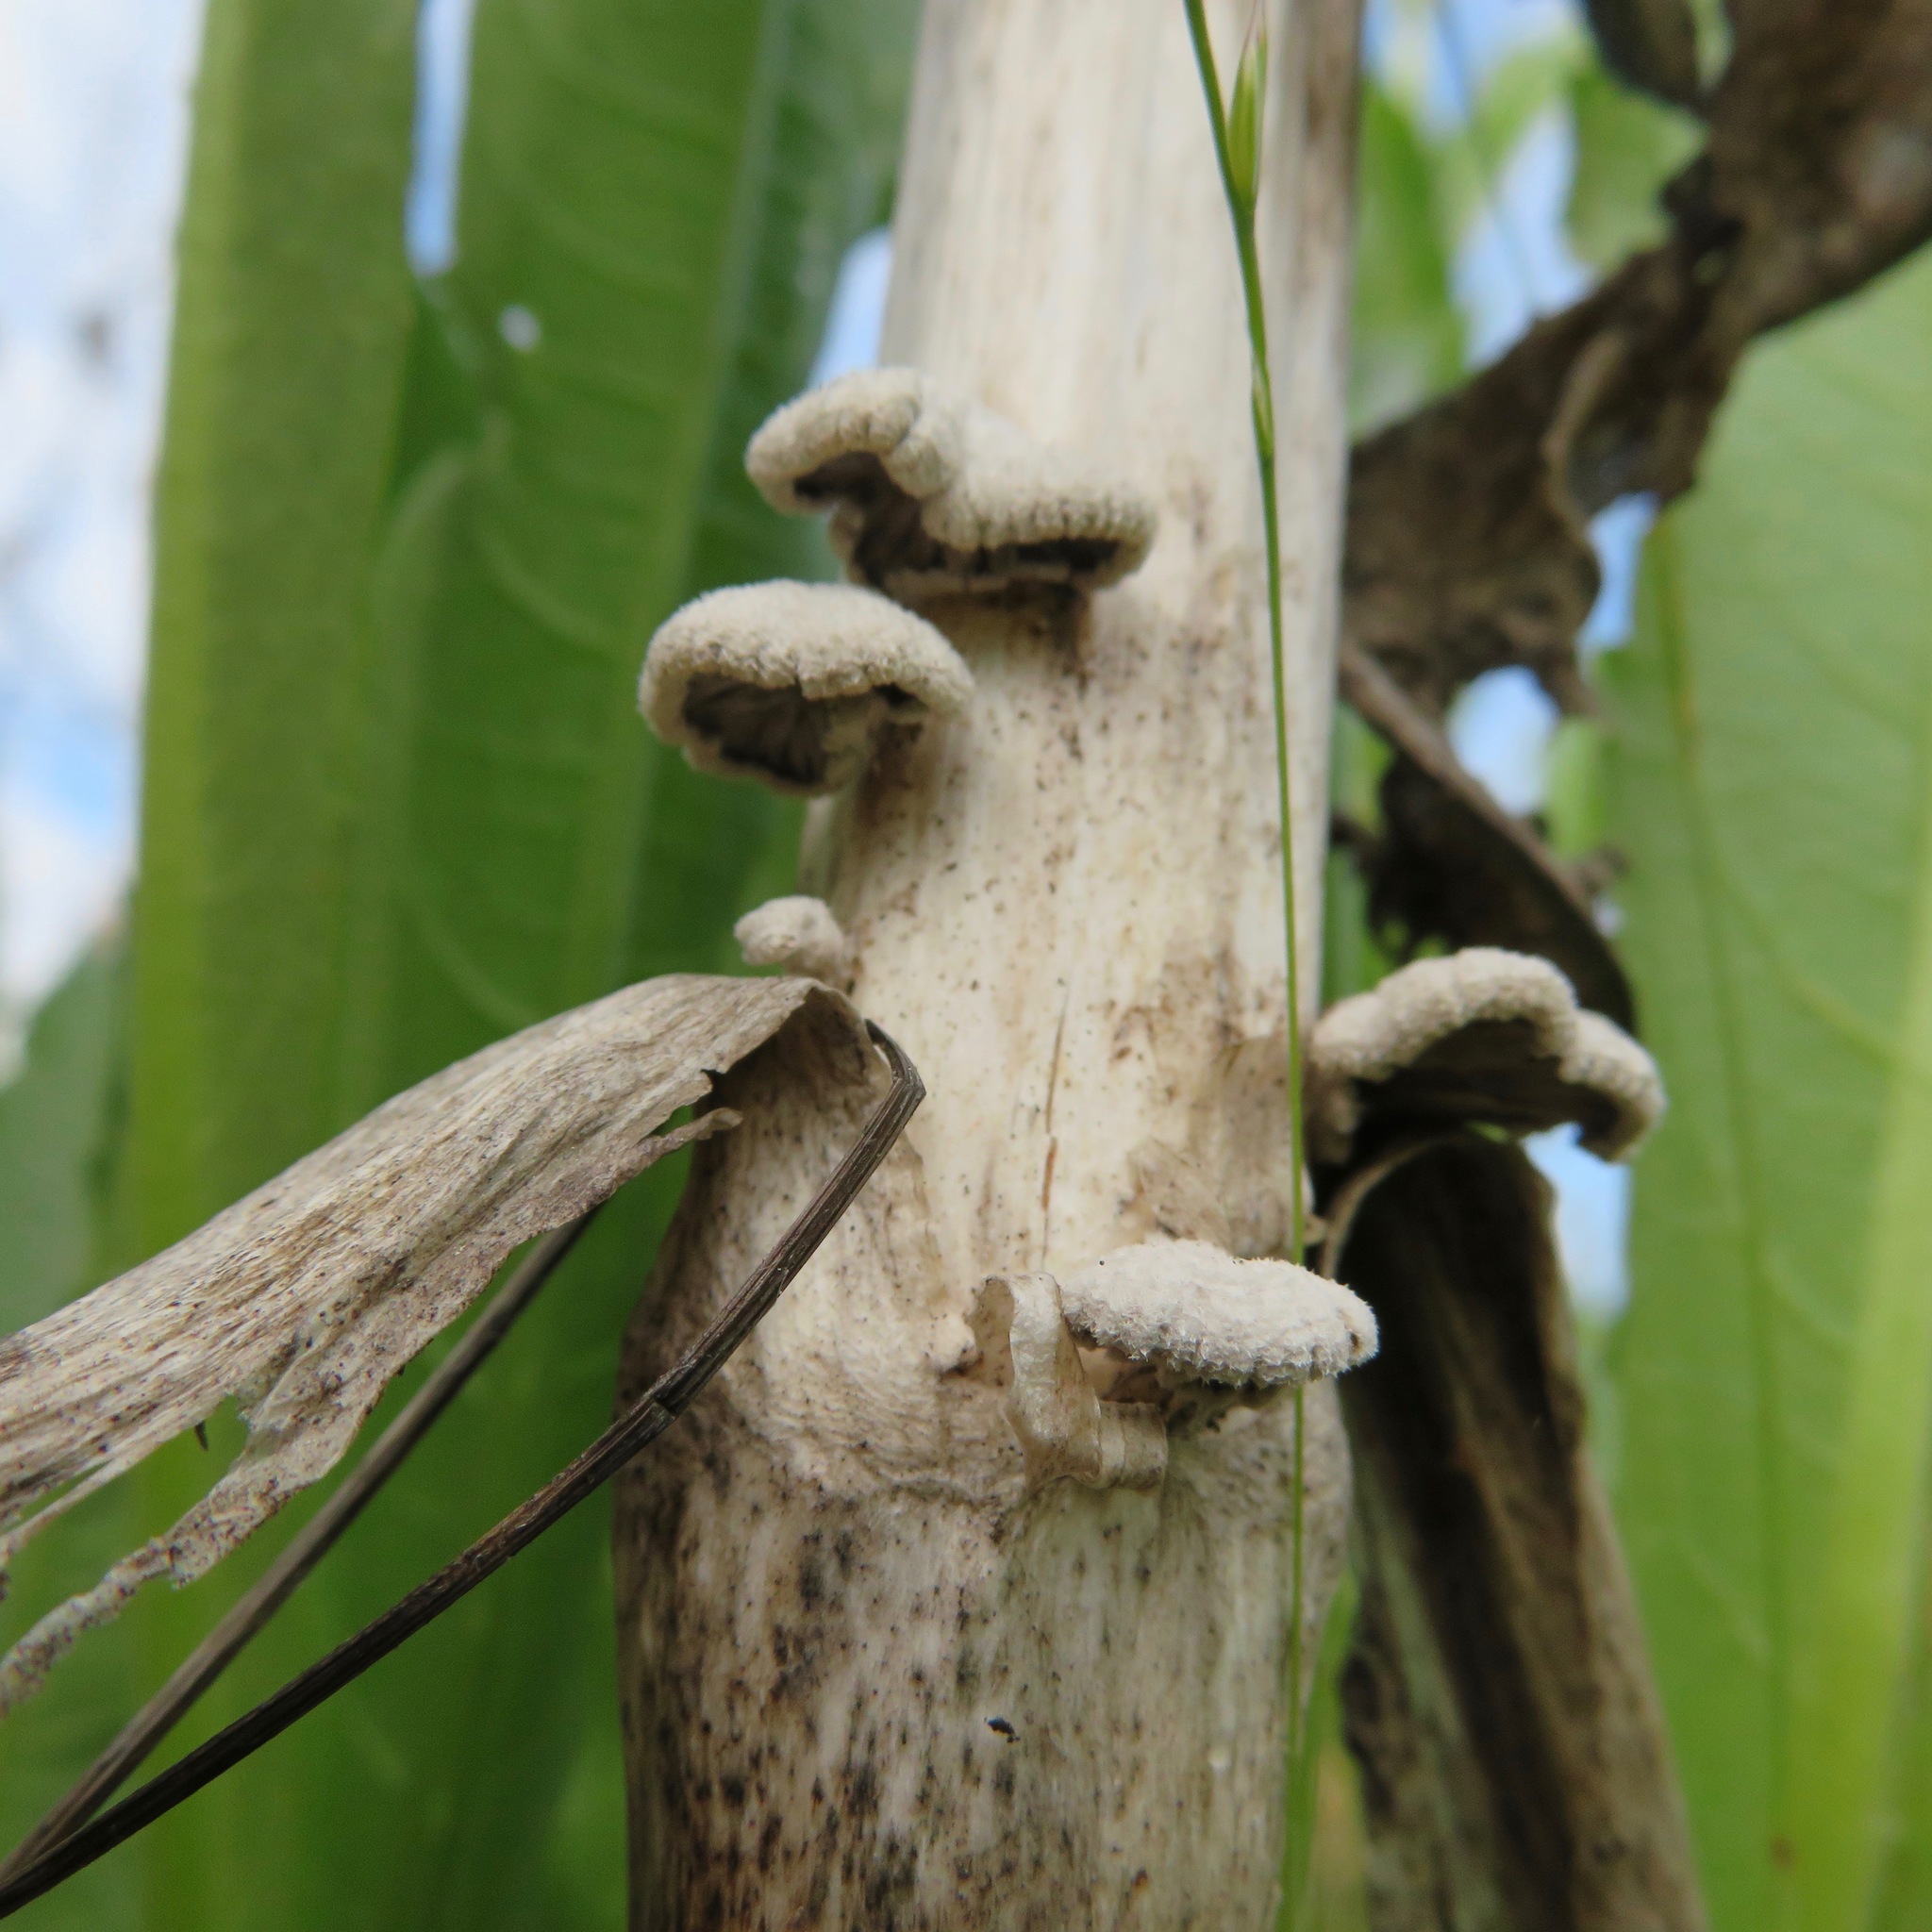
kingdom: Fungi
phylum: Basidiomycota
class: Agaricomycetes
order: Agaricales
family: Schizophyllaceae
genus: Schizophyllum
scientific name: Schizophyllum commune
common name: Common porecrust
